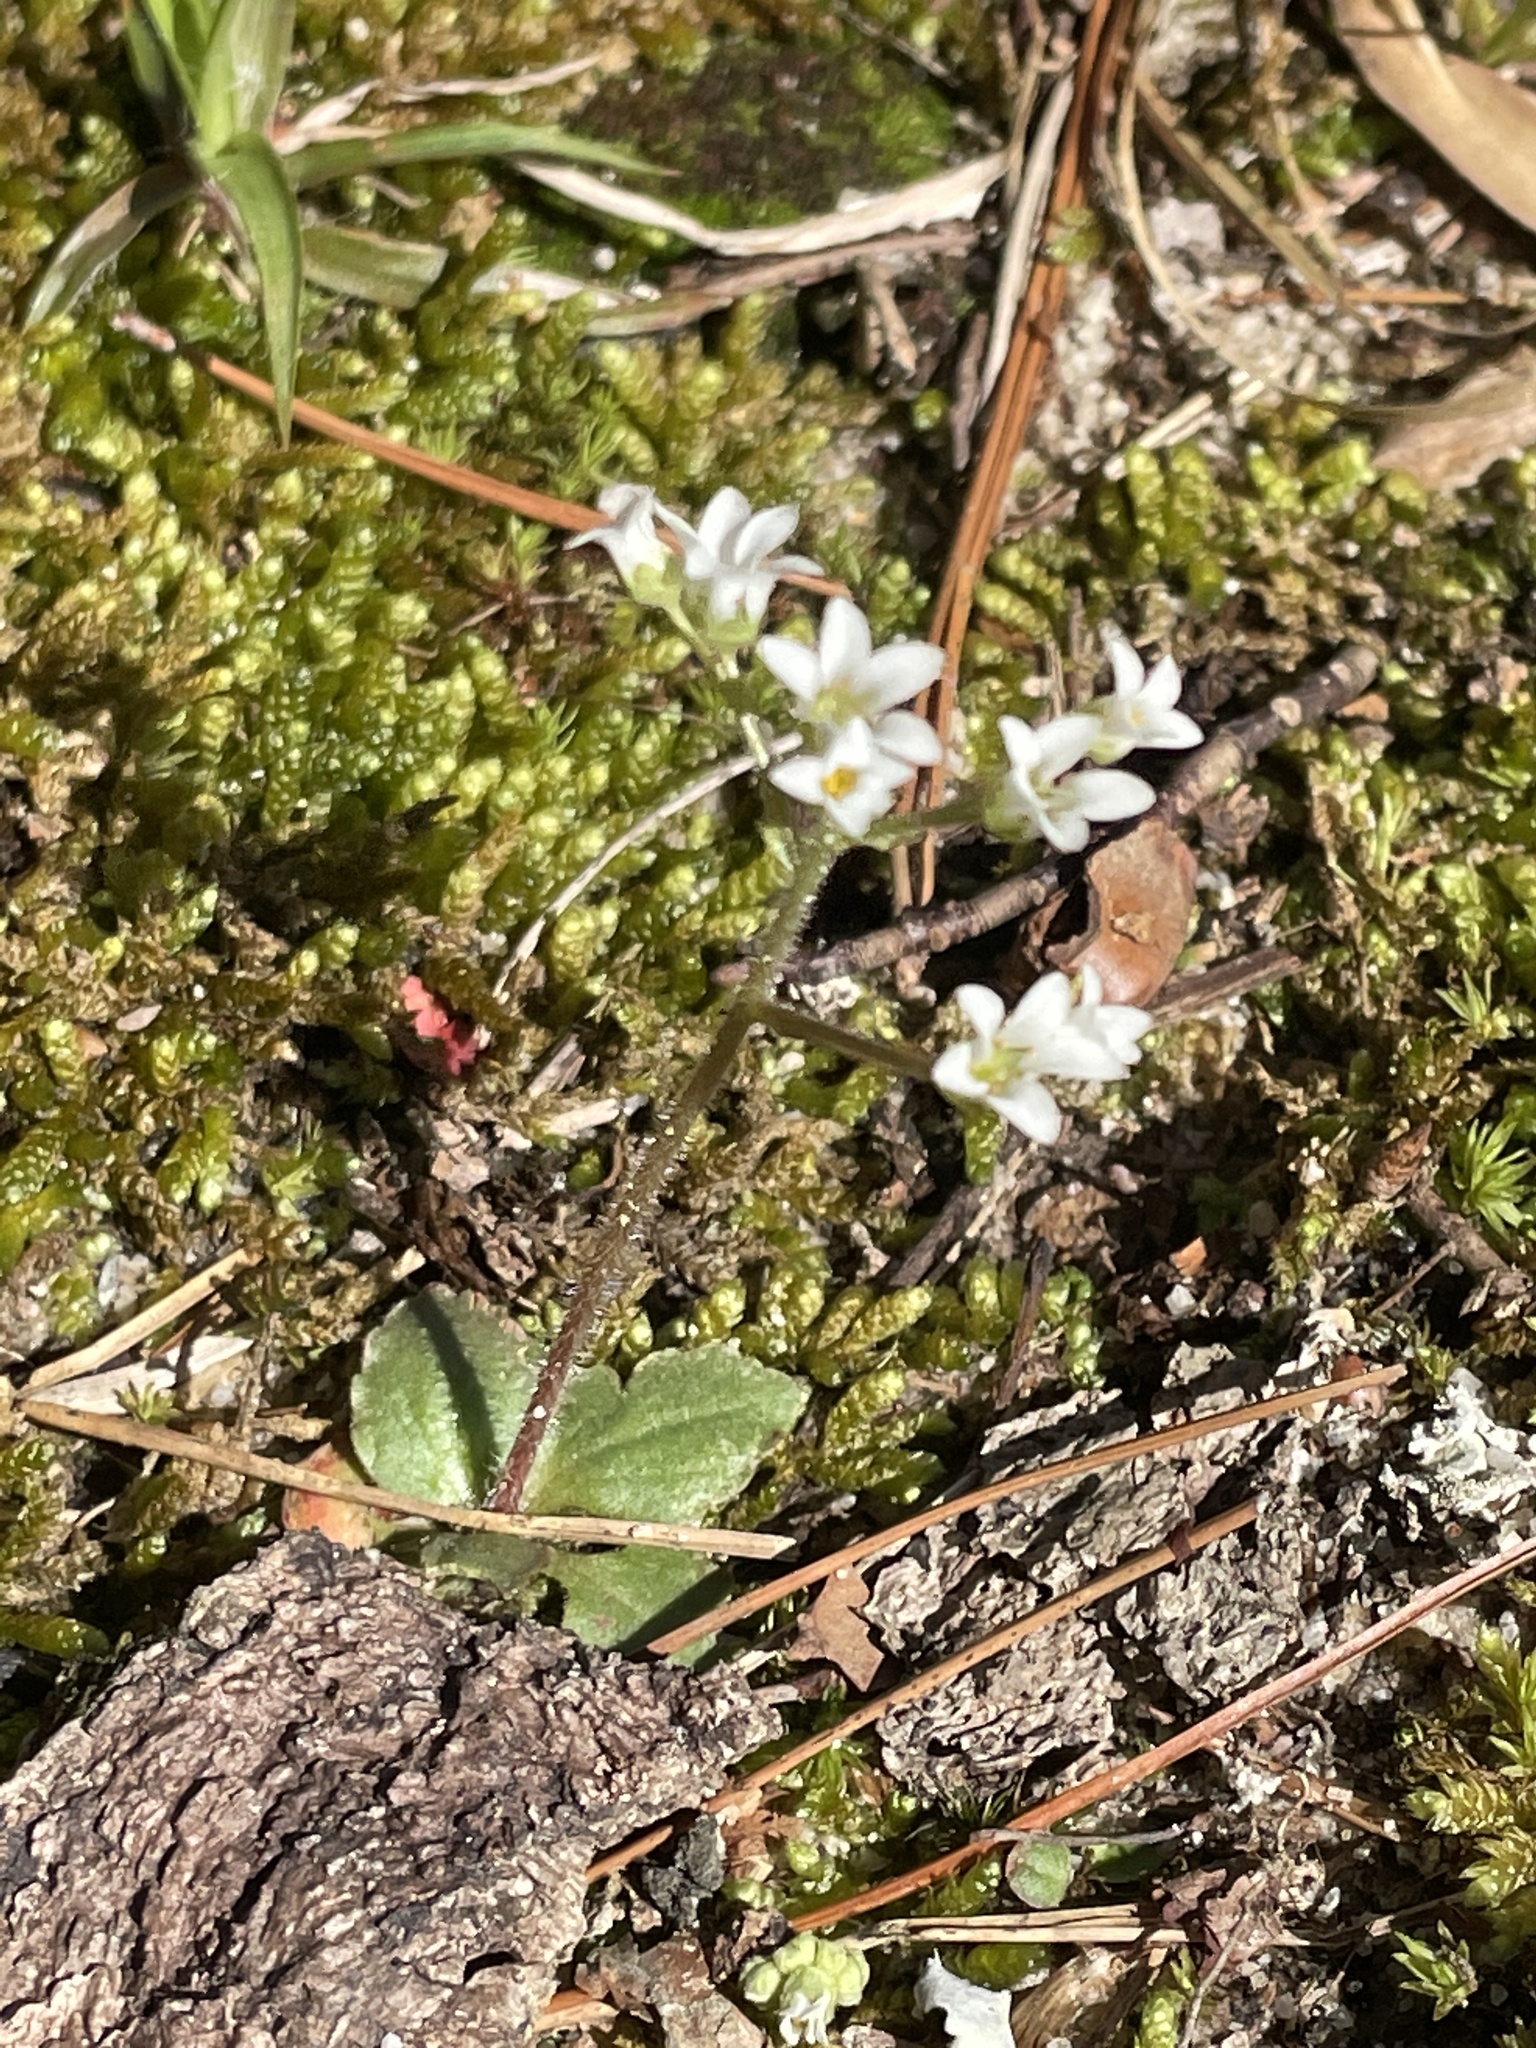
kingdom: Plantae
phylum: Tracheophyta
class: Magnoliopsida
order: Saxifragales
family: Saxifragaceae
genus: Micranthes
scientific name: Micranthes virginiensis
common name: Early saxifrage
